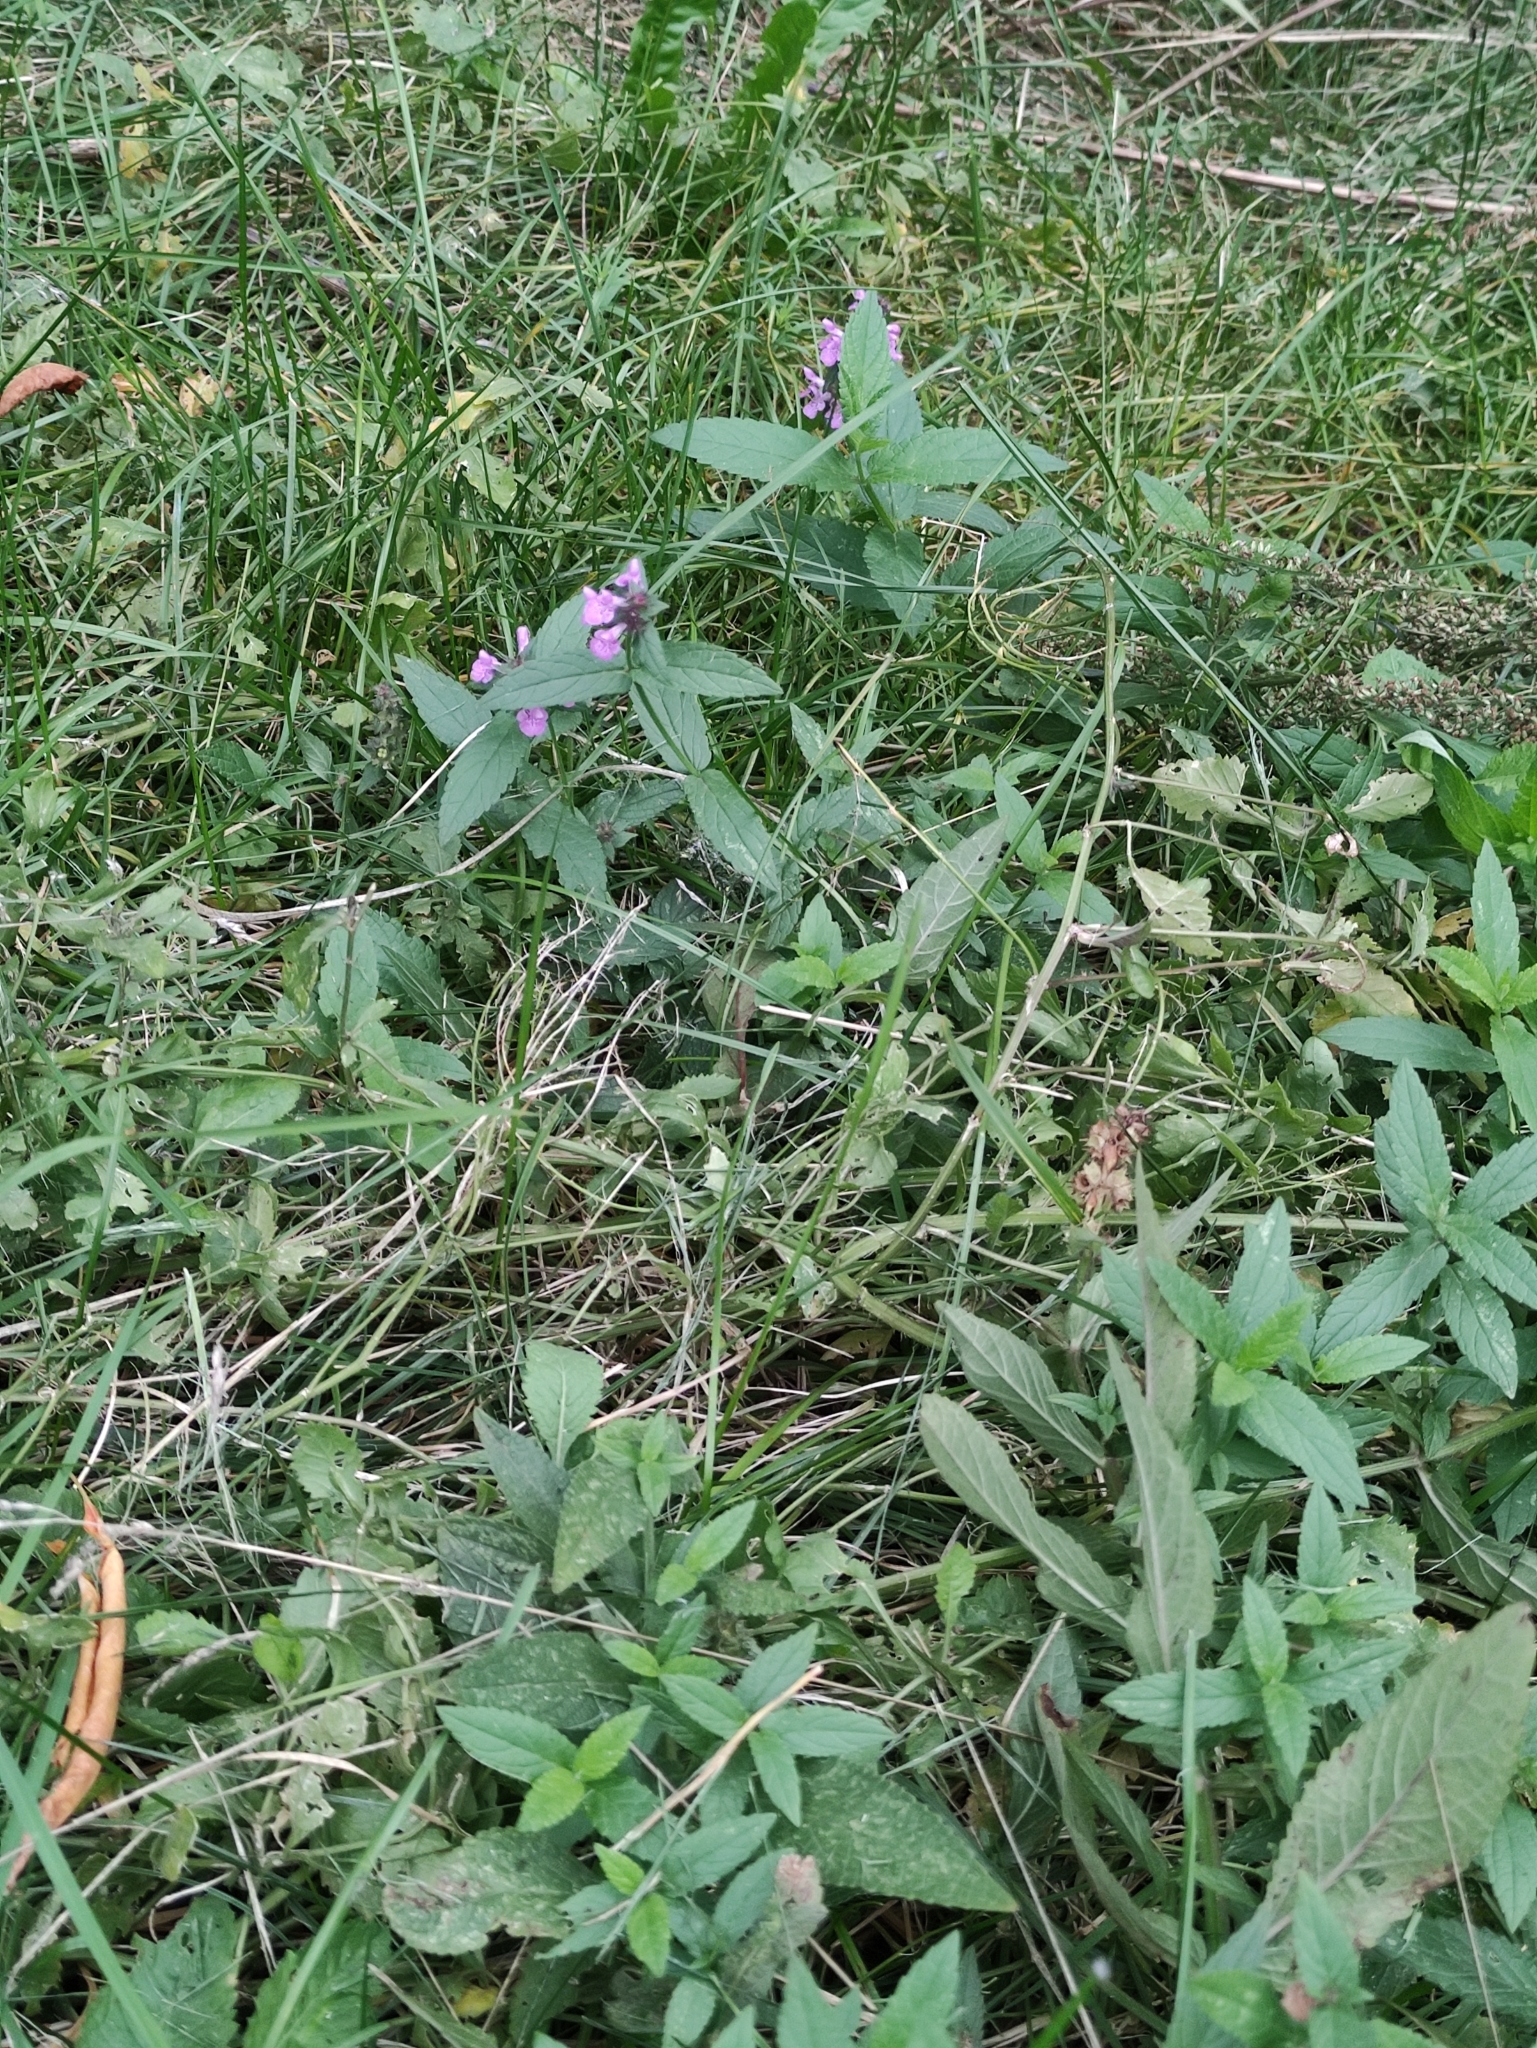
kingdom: Plantae
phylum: Tracheophyta
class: Magnoliopsida
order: Lamiales
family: Lamiaceae
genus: Stachys
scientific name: Stachys palustris
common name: Marsh woundwort
